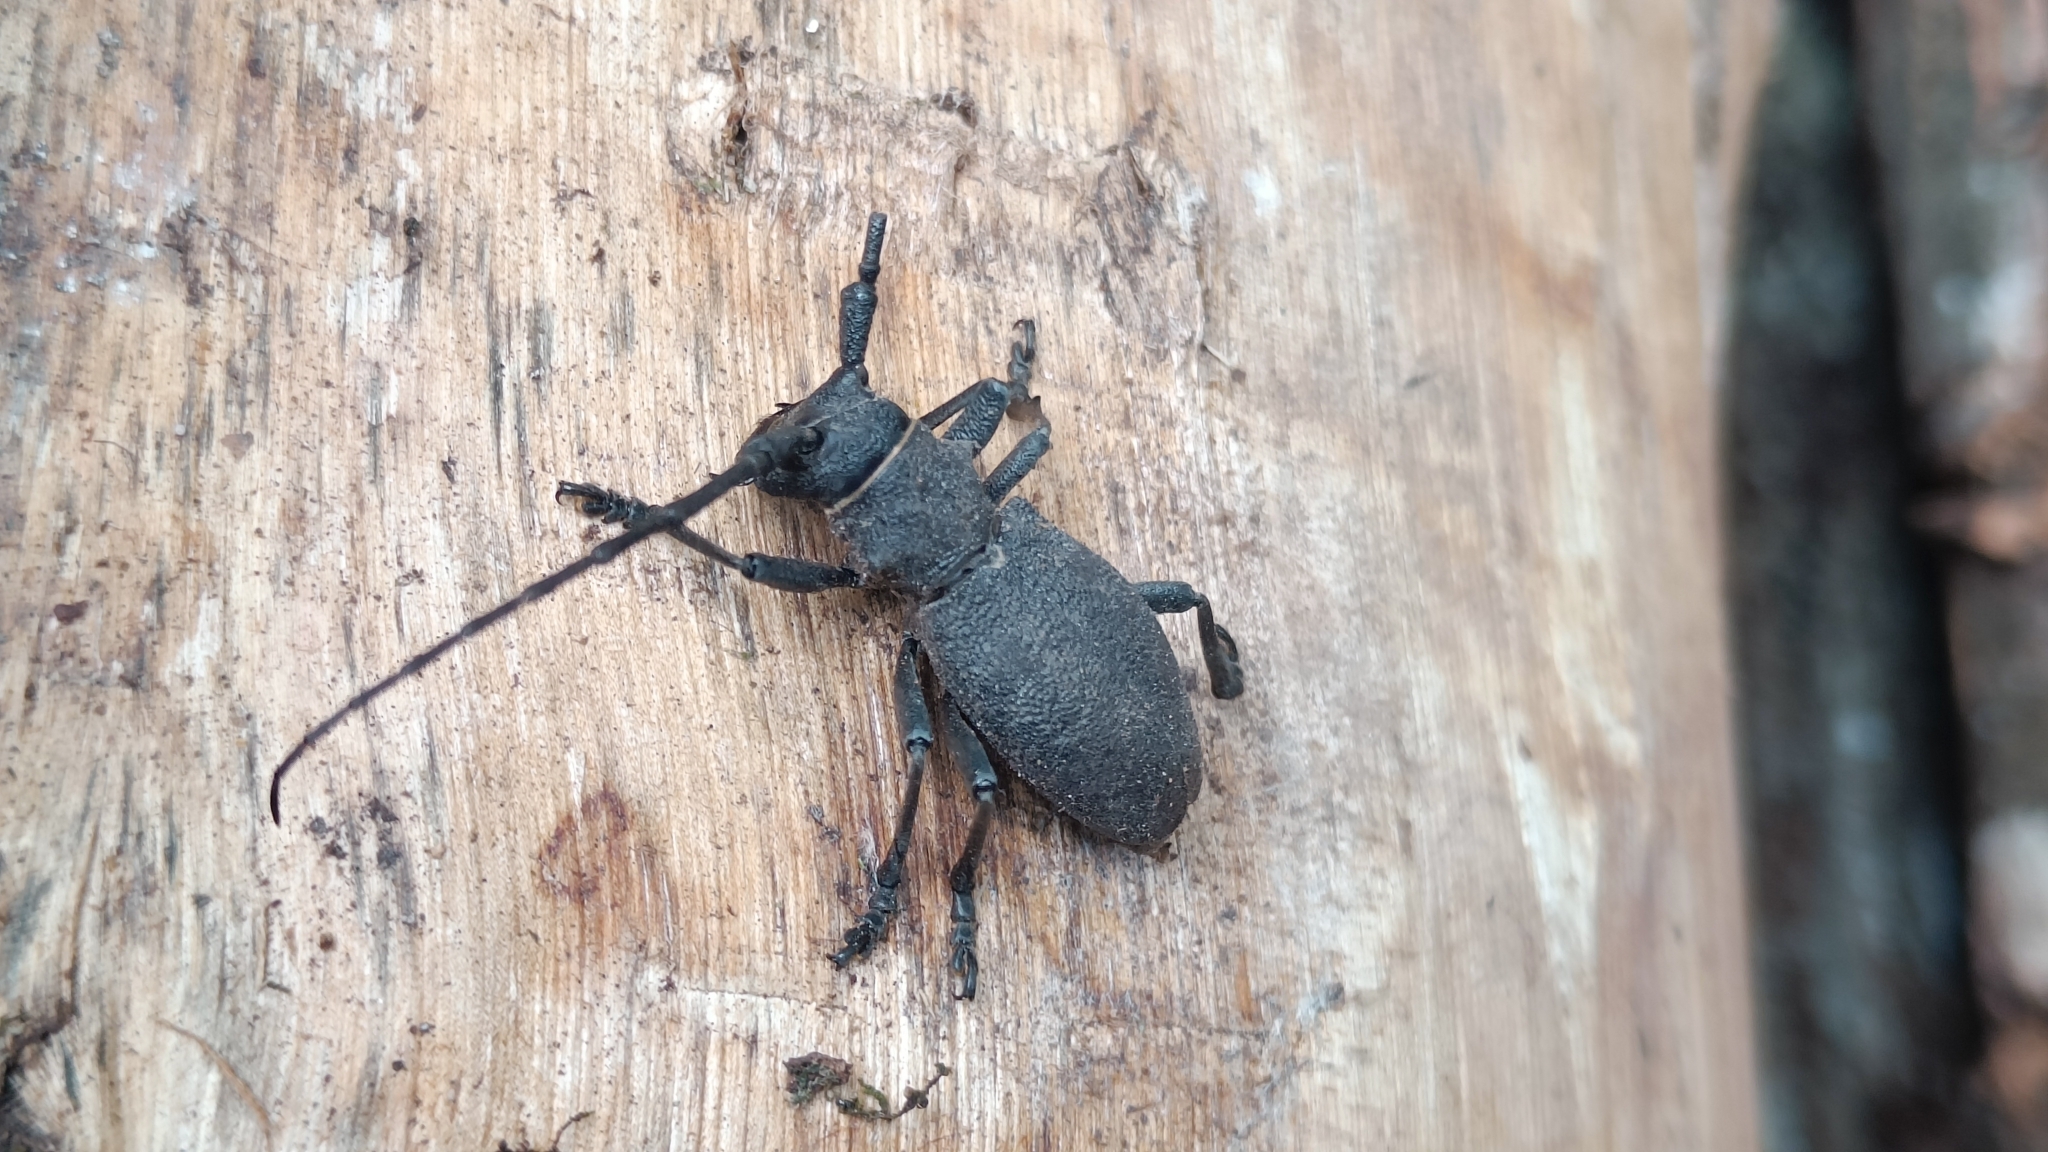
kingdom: Animalia
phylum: Arthropoda
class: Insecta
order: Coleoptera
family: Cerambycidae
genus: Morimus
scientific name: Morimus asper
